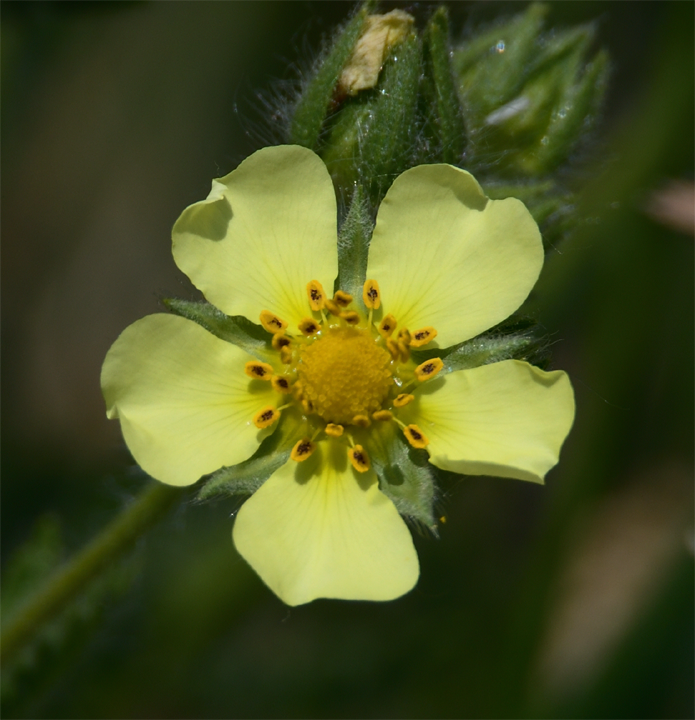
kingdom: Plantae
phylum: Tracheophyta
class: Magnoliopsida
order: Rosales
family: Rosaceae
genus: Potentilla
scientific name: Potentilla recta
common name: Sulphur cinquefoil
